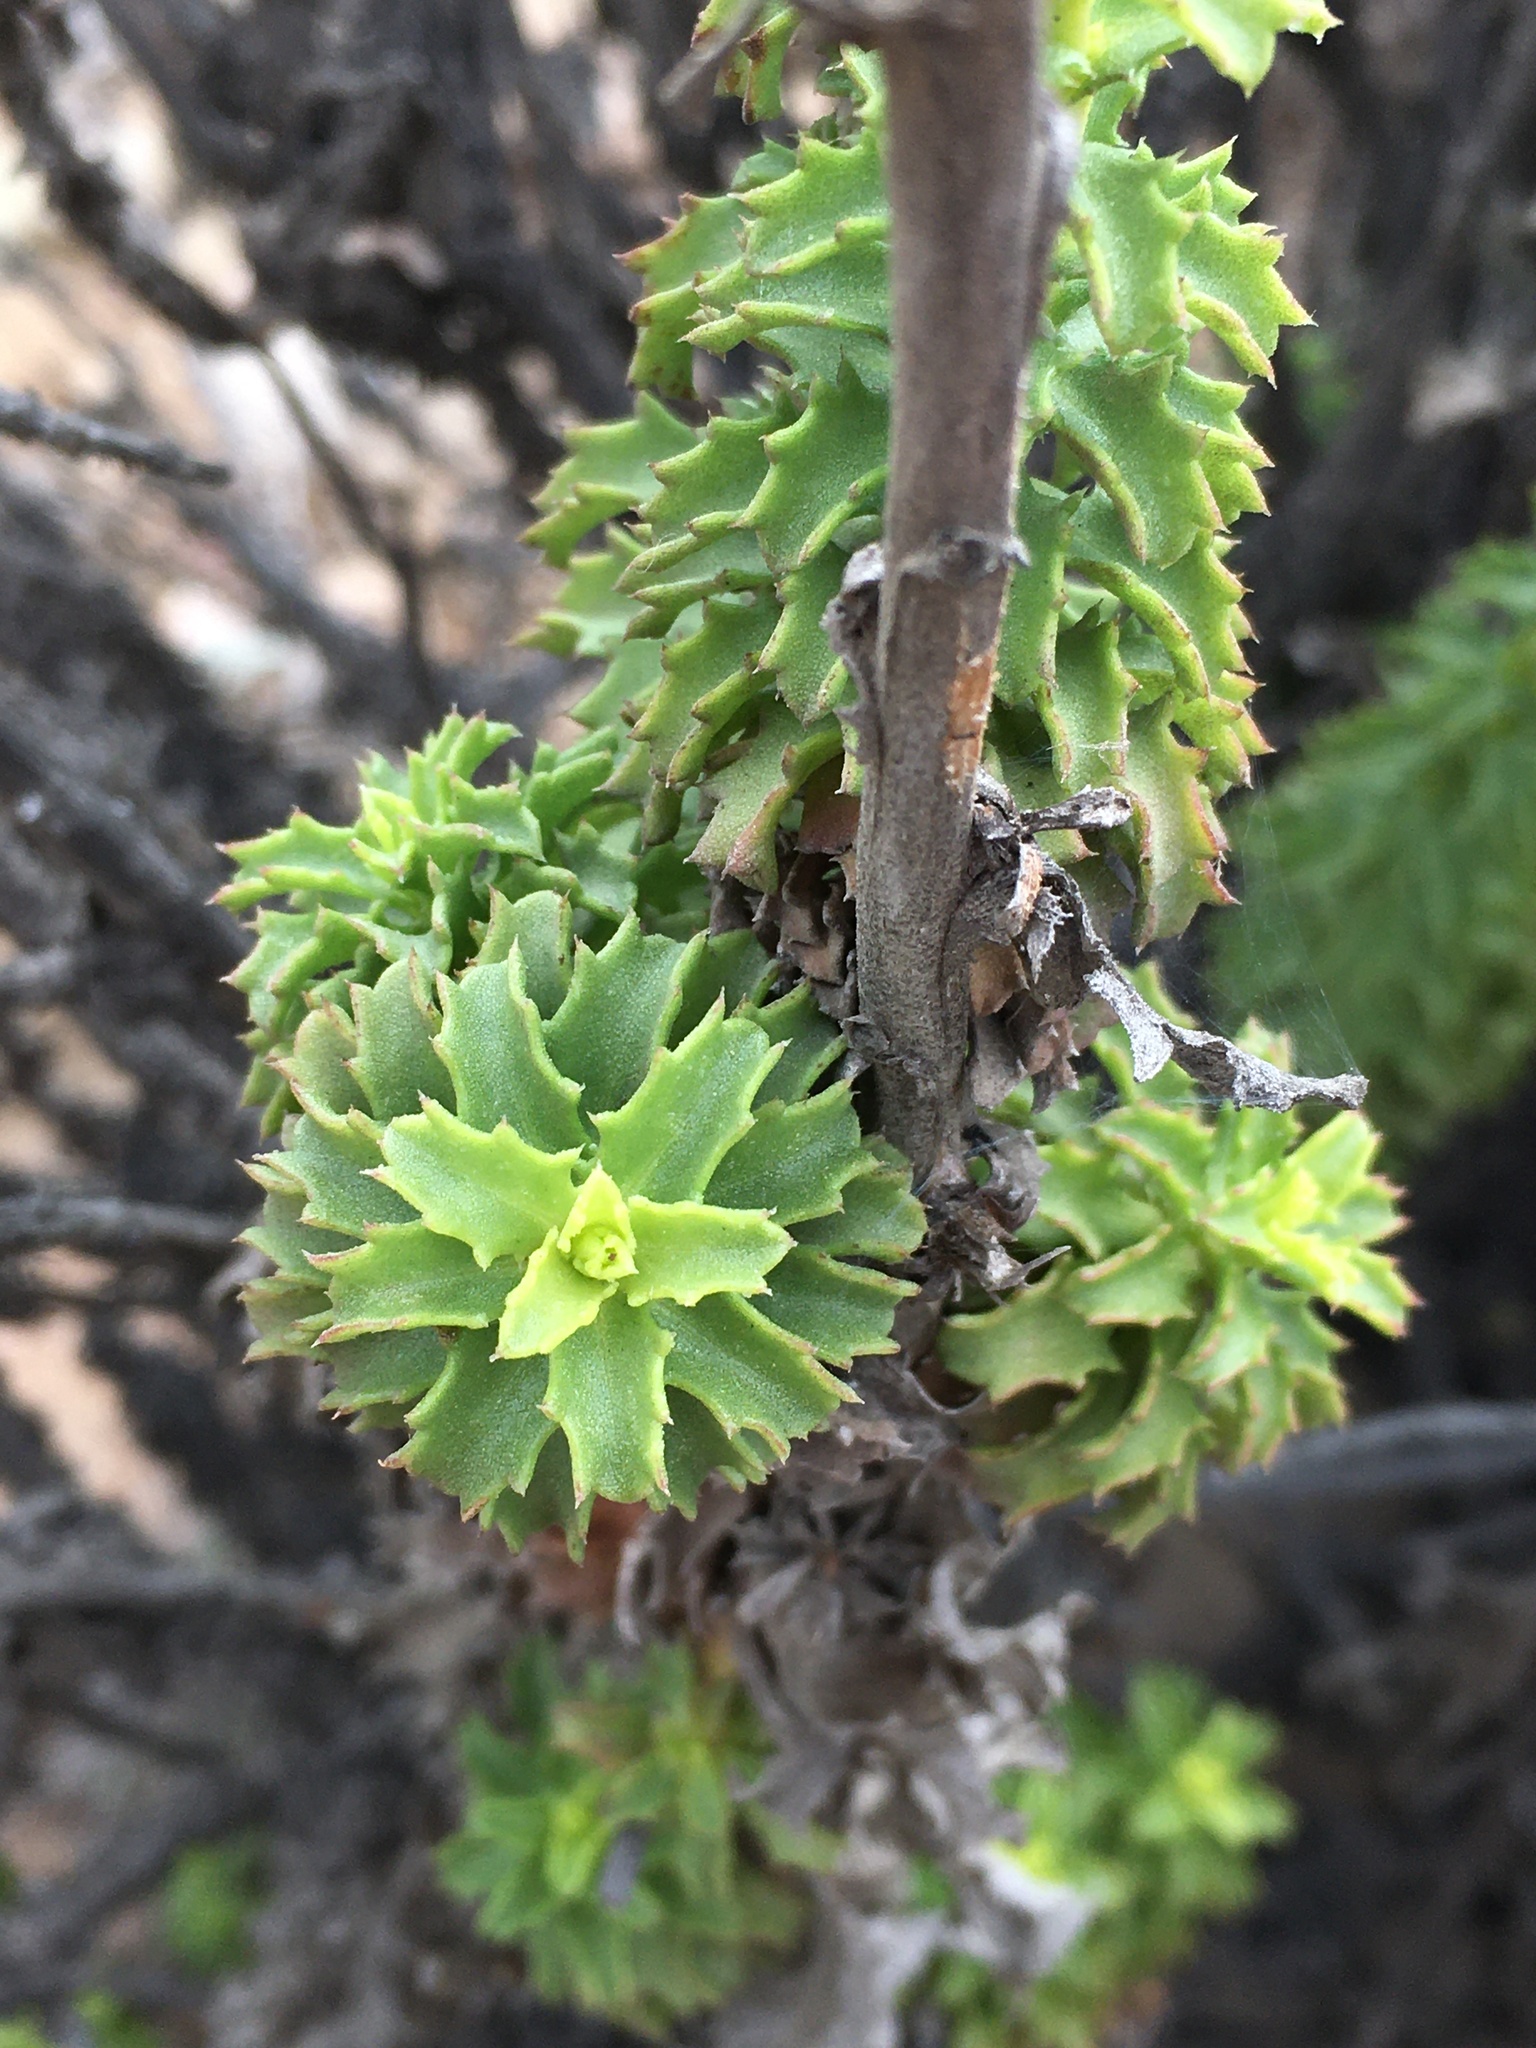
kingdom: Plantae
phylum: Tracheophyta
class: Magnoliopsida
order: Asterales
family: Asteraceae
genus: Haplopappus
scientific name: Haplopappus parvifolius
